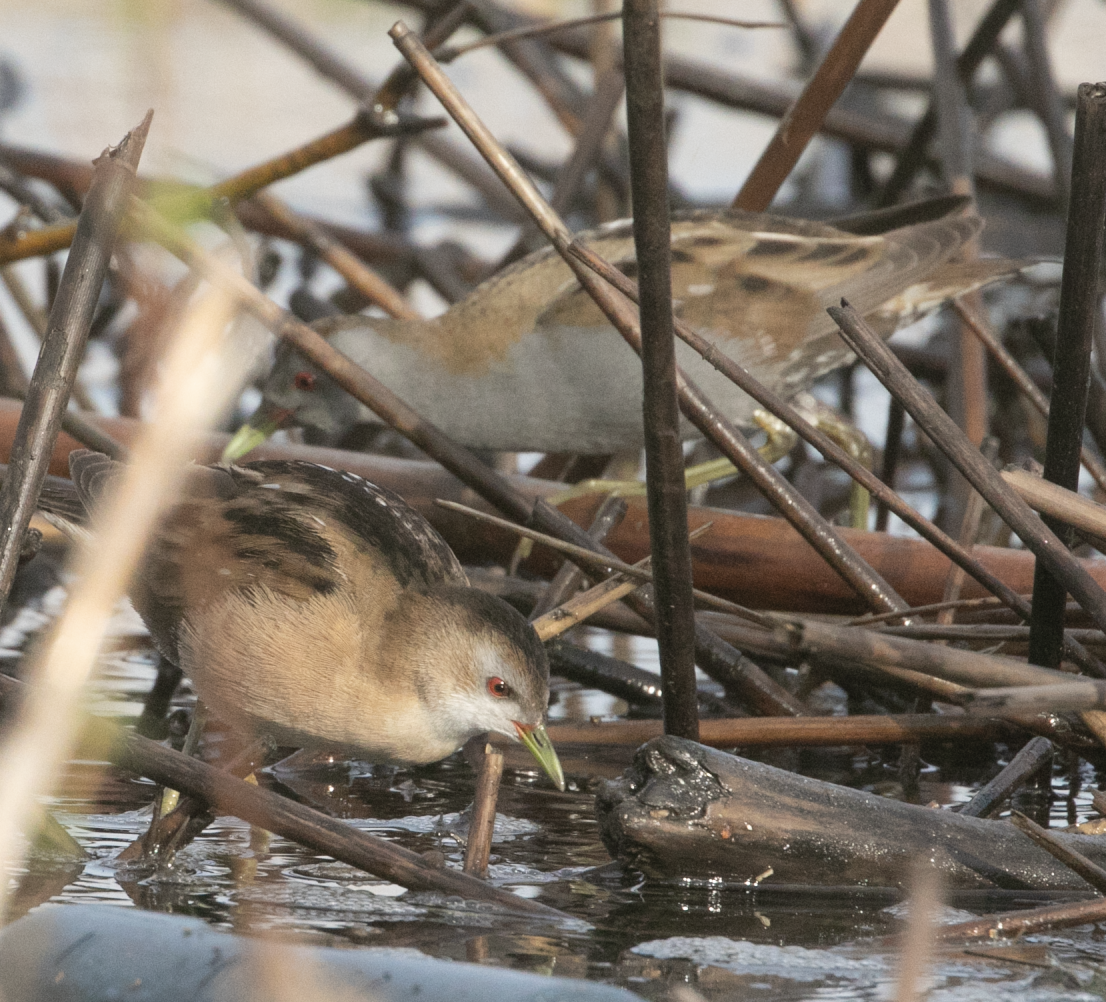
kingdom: Animalia
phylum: Chordata
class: Aves
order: Gruiformes
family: Rallidae
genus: Porzana
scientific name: Porzana parva
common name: Little crake
